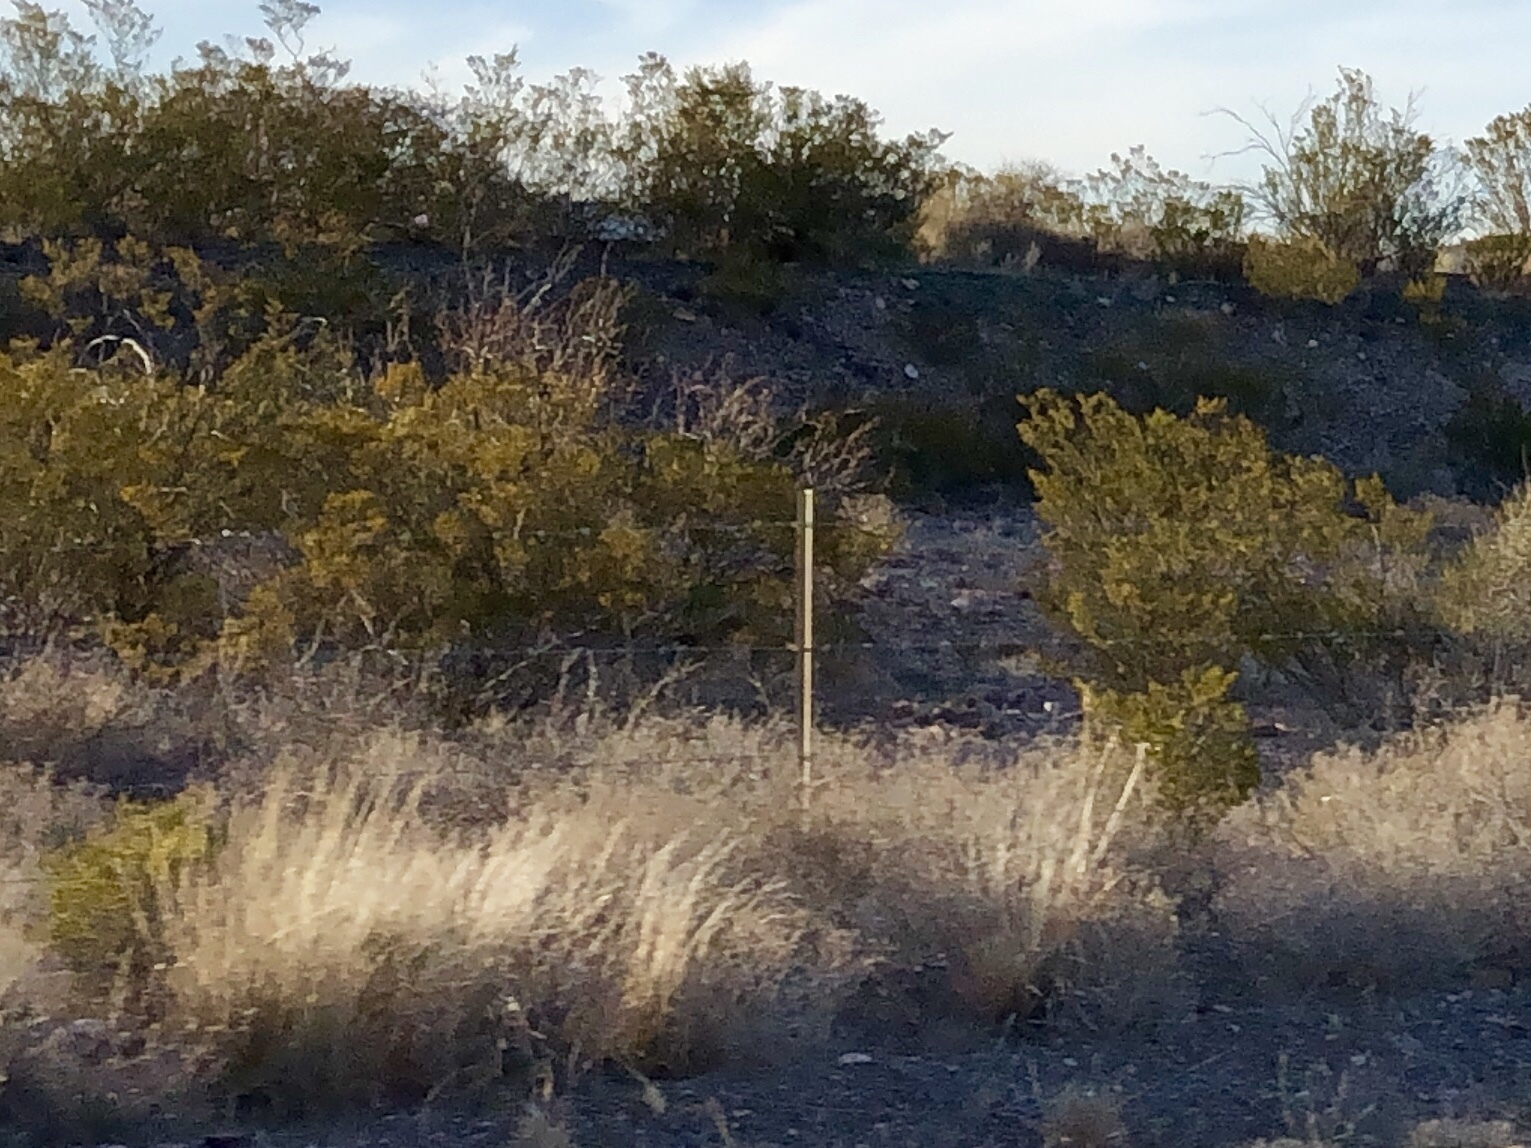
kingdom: Plantae
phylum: Tracheophyta
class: Magnoliopsida
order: Zygophyllales
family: Zygophyllaceae
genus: Larrea
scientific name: Larrea tridentata
